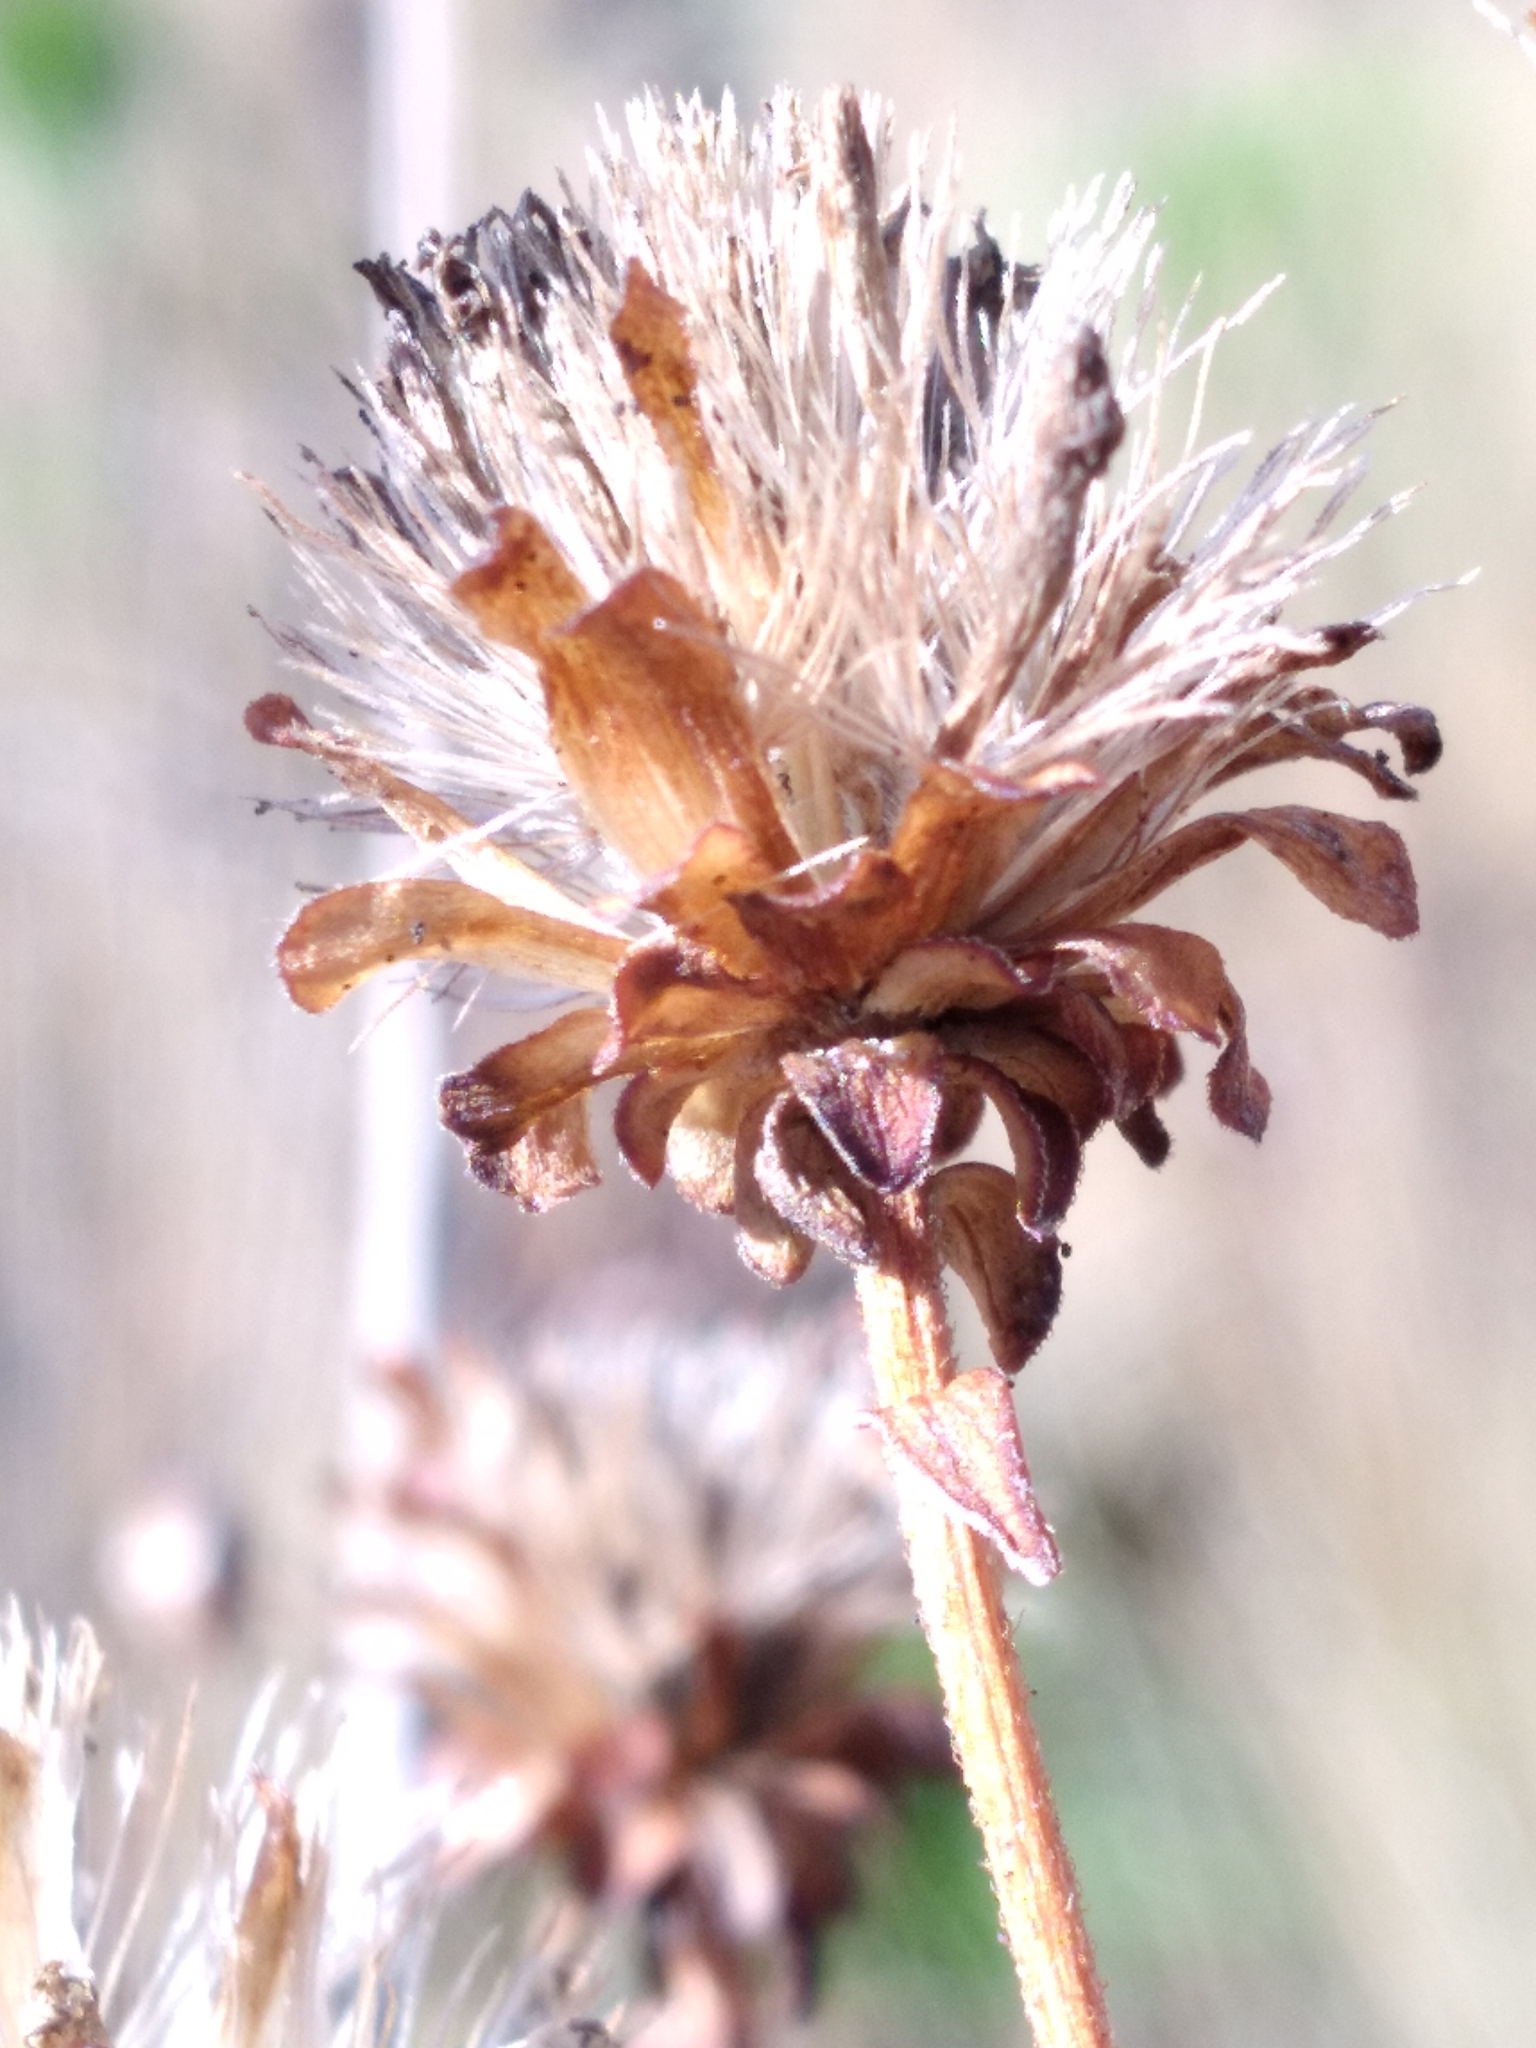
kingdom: Plantae
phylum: Tracheophyta
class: Magnoliopsida
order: Asterales
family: Asteraceae
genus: Carphephorus
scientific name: Carphephorus bellidifolius
